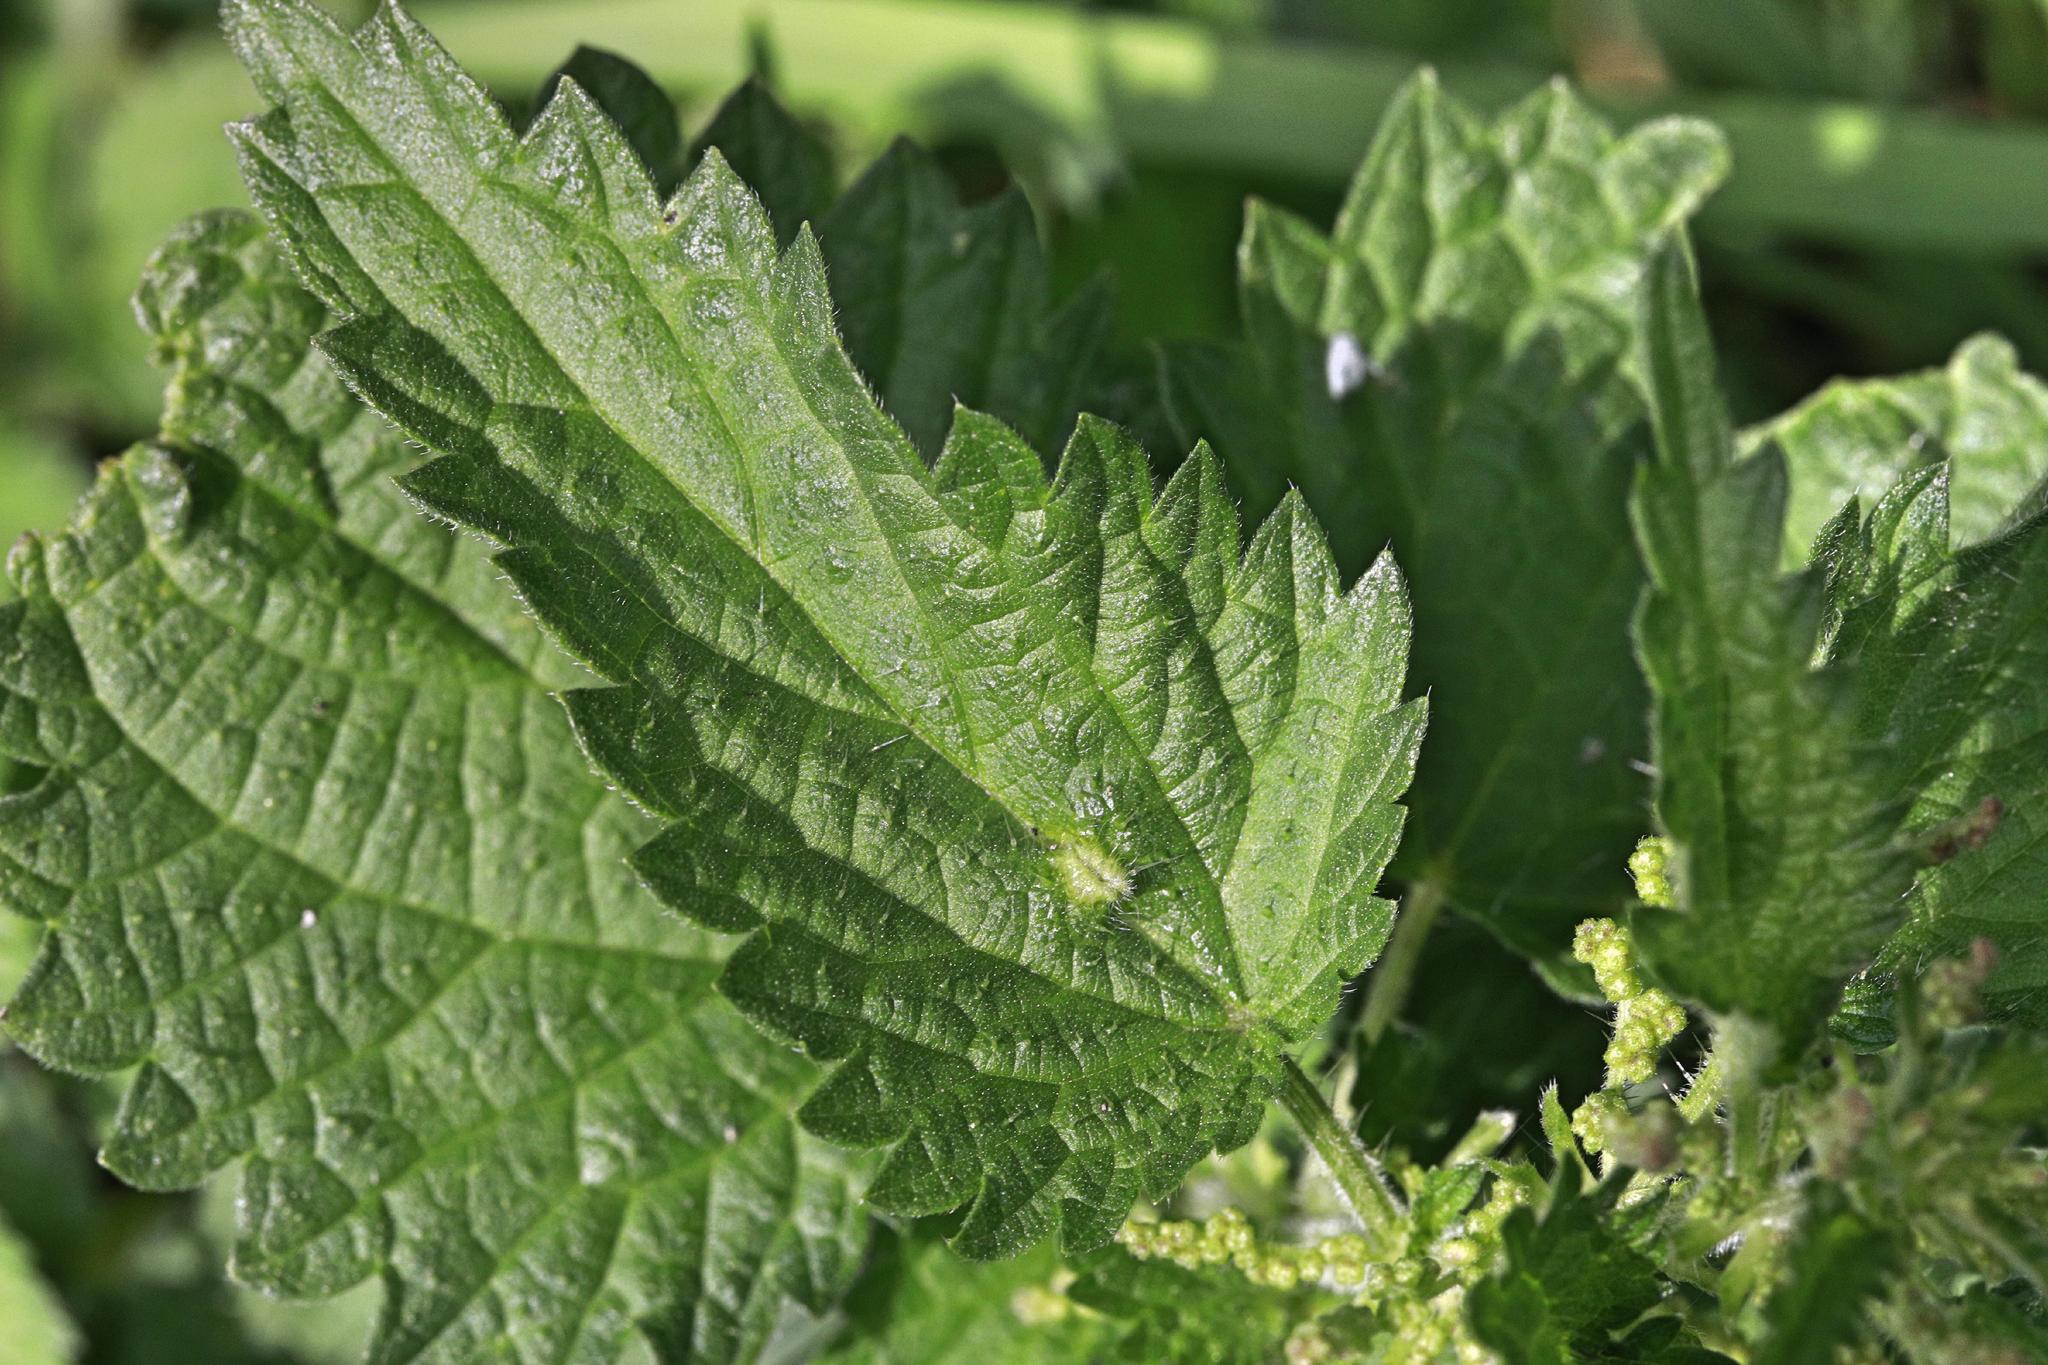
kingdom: Animalia
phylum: Arthropoda
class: Insecta
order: Diptera
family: Cecidomyiidae
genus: Dasineura
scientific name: Dasineura urticae
